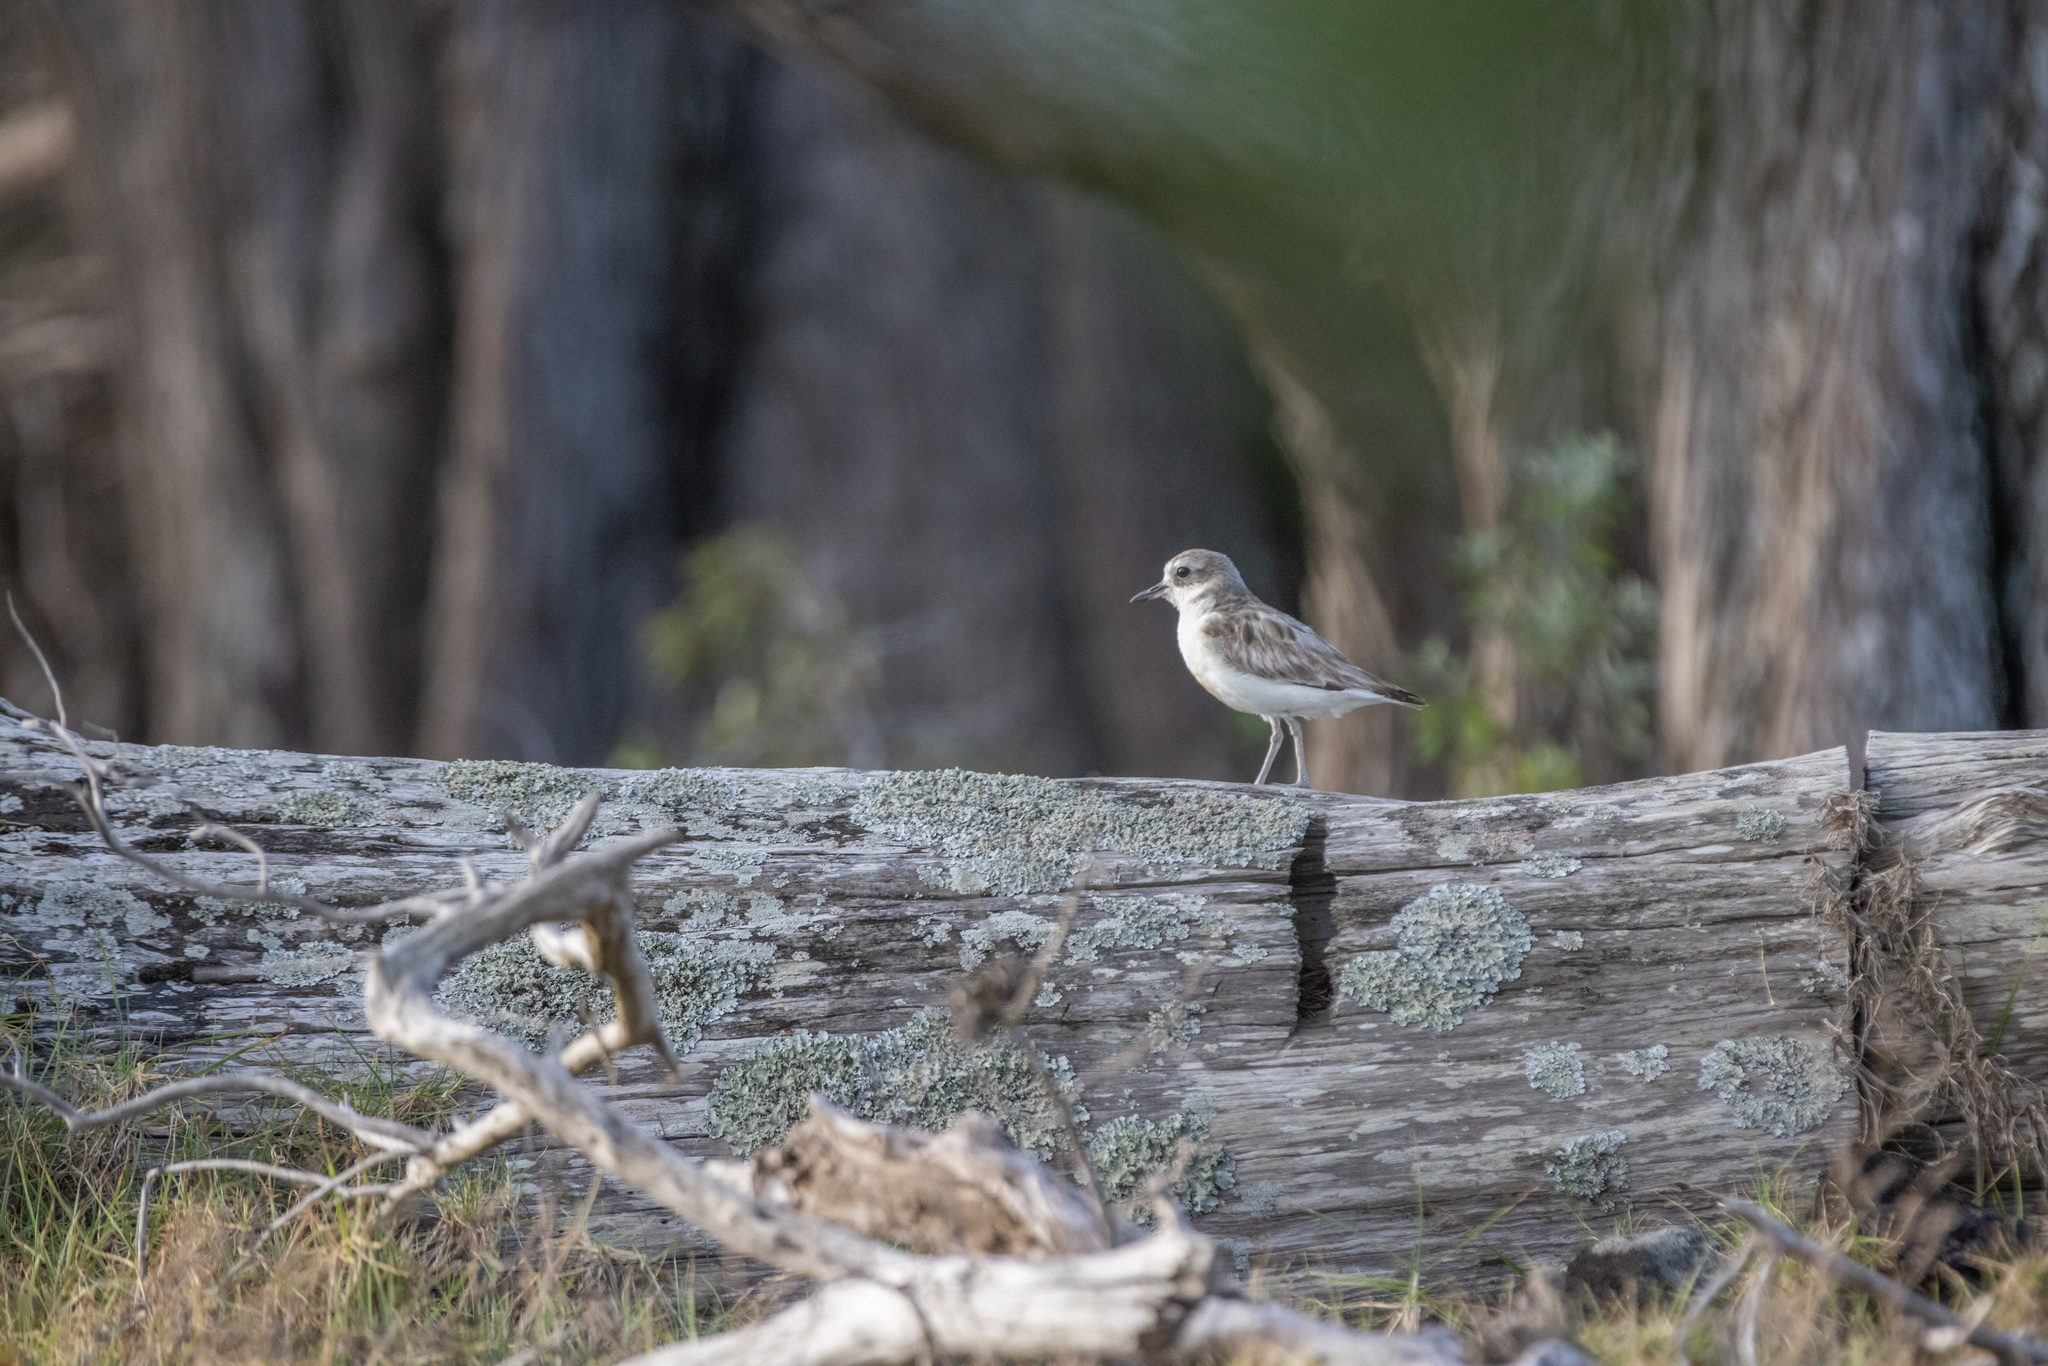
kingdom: Animalia
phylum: Chordata
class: Aves
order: Charadriiformes
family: Charadriidae
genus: Anarhynchus
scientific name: Anarhynchus
